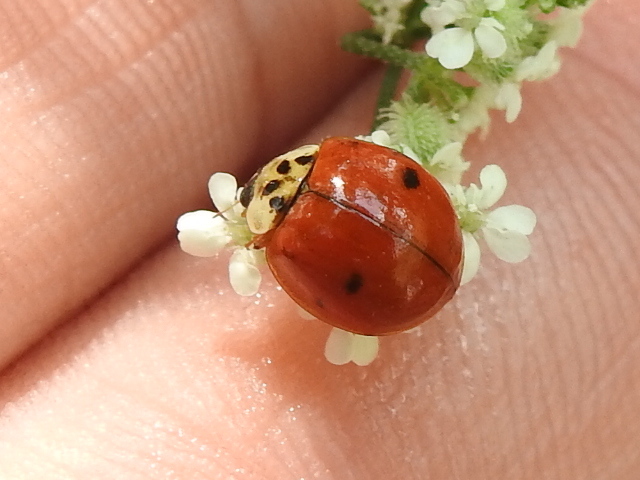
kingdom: Animalia
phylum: Arthropoda
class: Insecta
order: Coleoptera
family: Coccinellidae
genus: Harmonia
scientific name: Harmonia axyridis
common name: Harlequin ladybird
